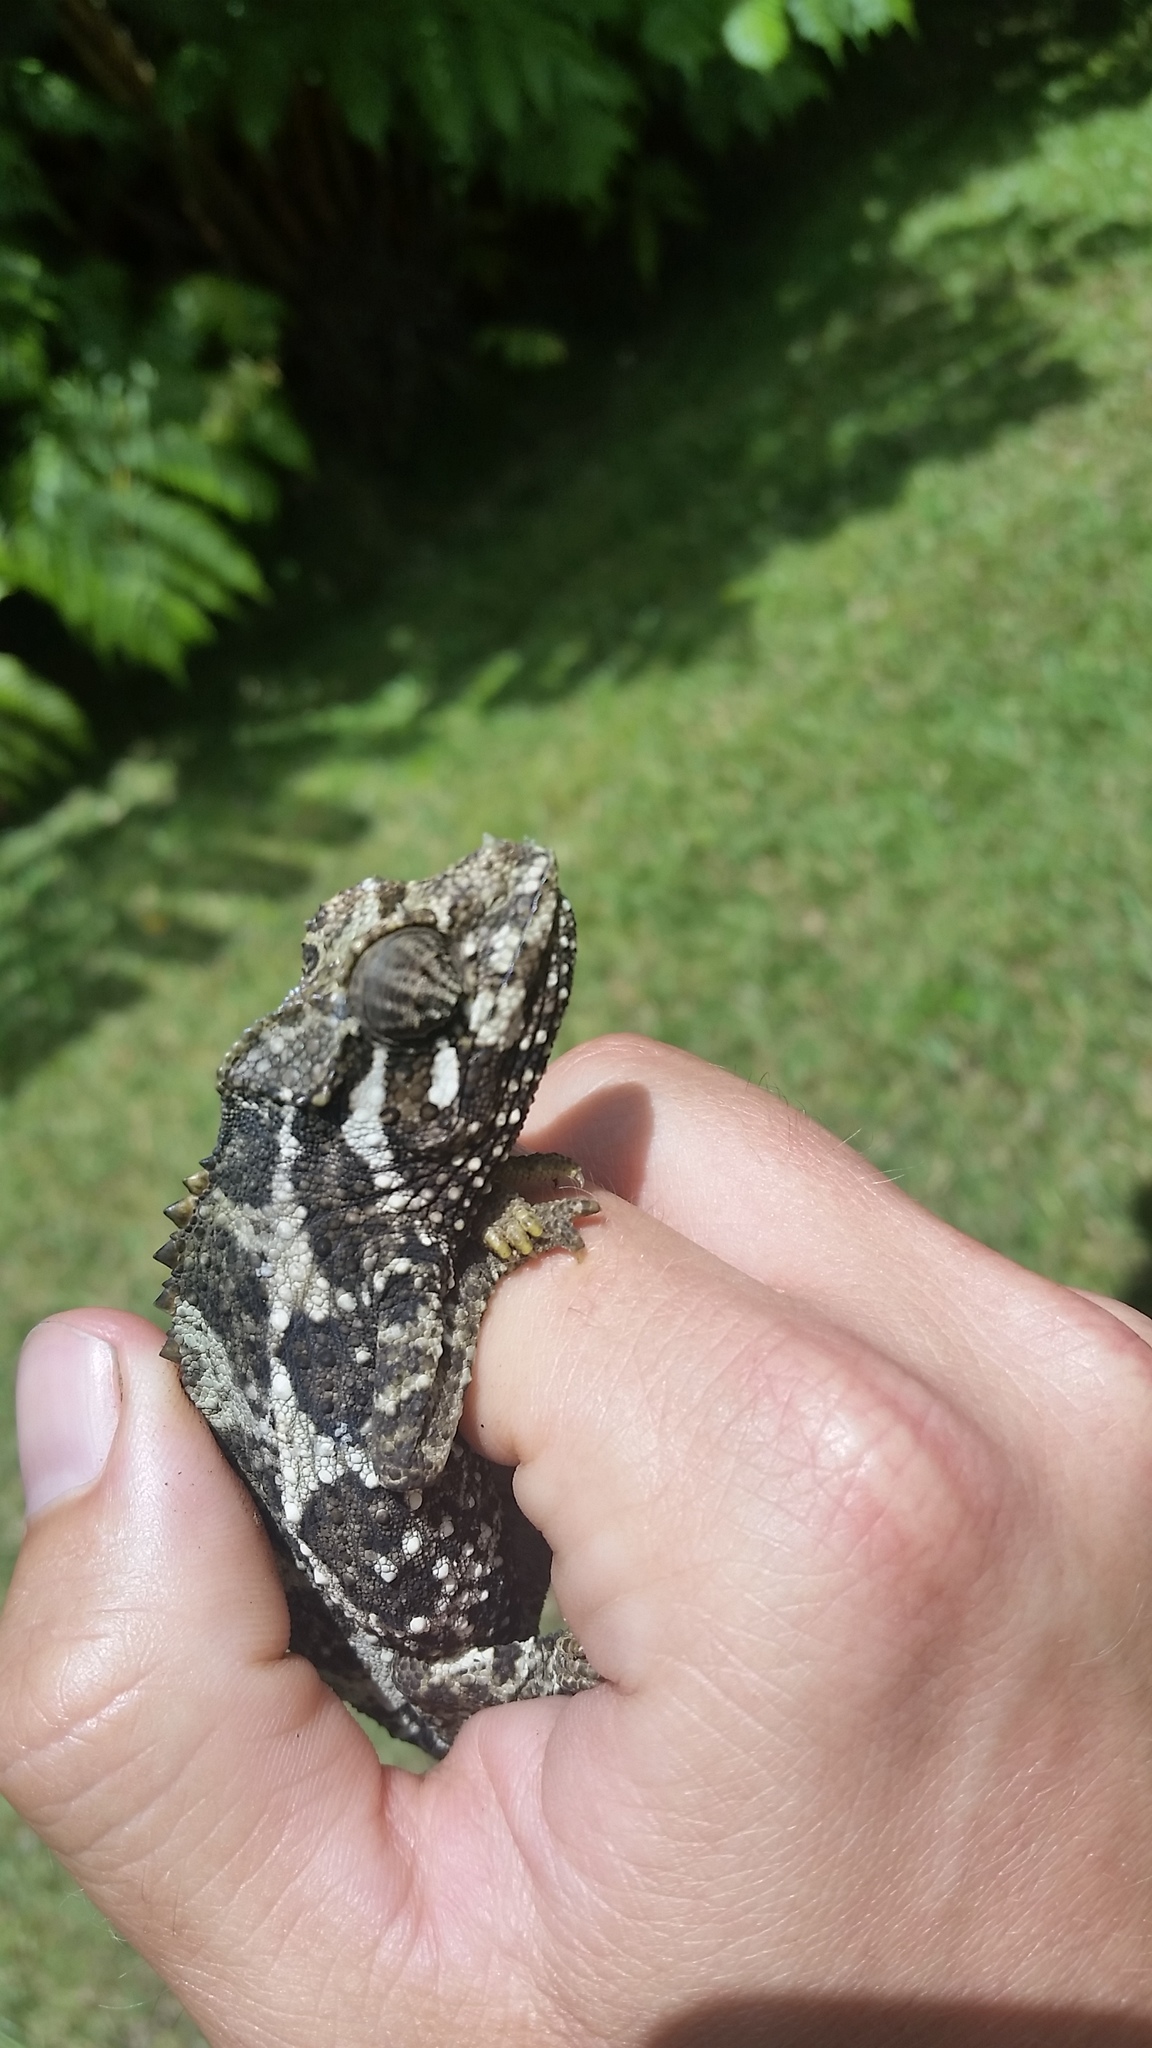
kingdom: Animalia
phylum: Chordata
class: Squamata
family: Chamaeleonidae
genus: Trioceros
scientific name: Trioceros jacksonii
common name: Jackson's chameleon
